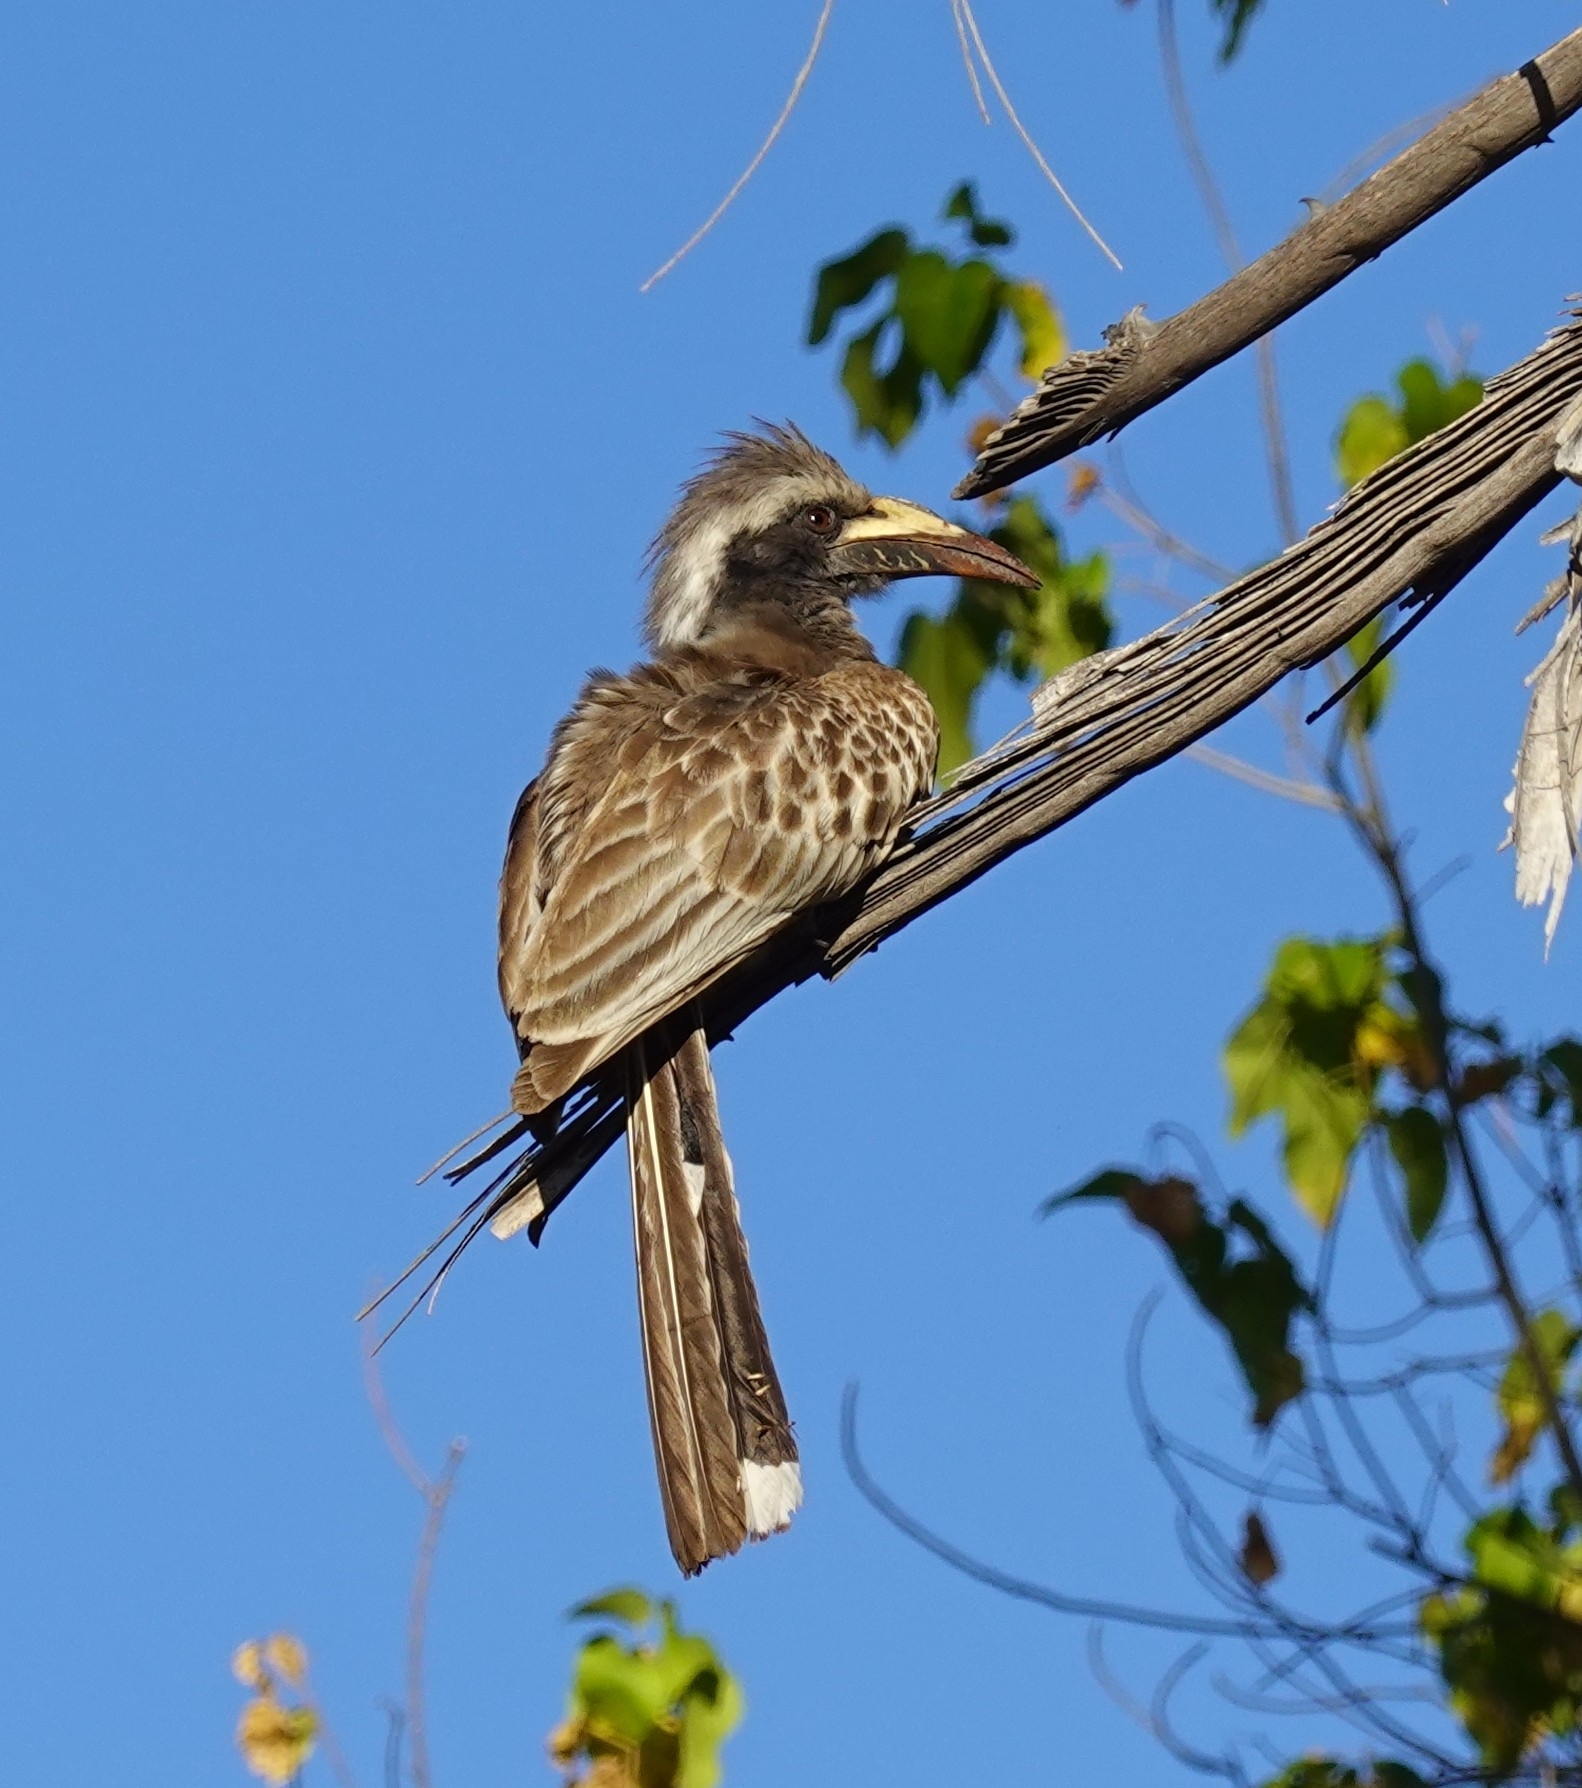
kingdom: Animalia
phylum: Chordata
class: Aves
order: Bucerotiformes
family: Bucerotidae
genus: Lophoceros
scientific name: Lophoceros nasutus
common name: African grey hornbill
